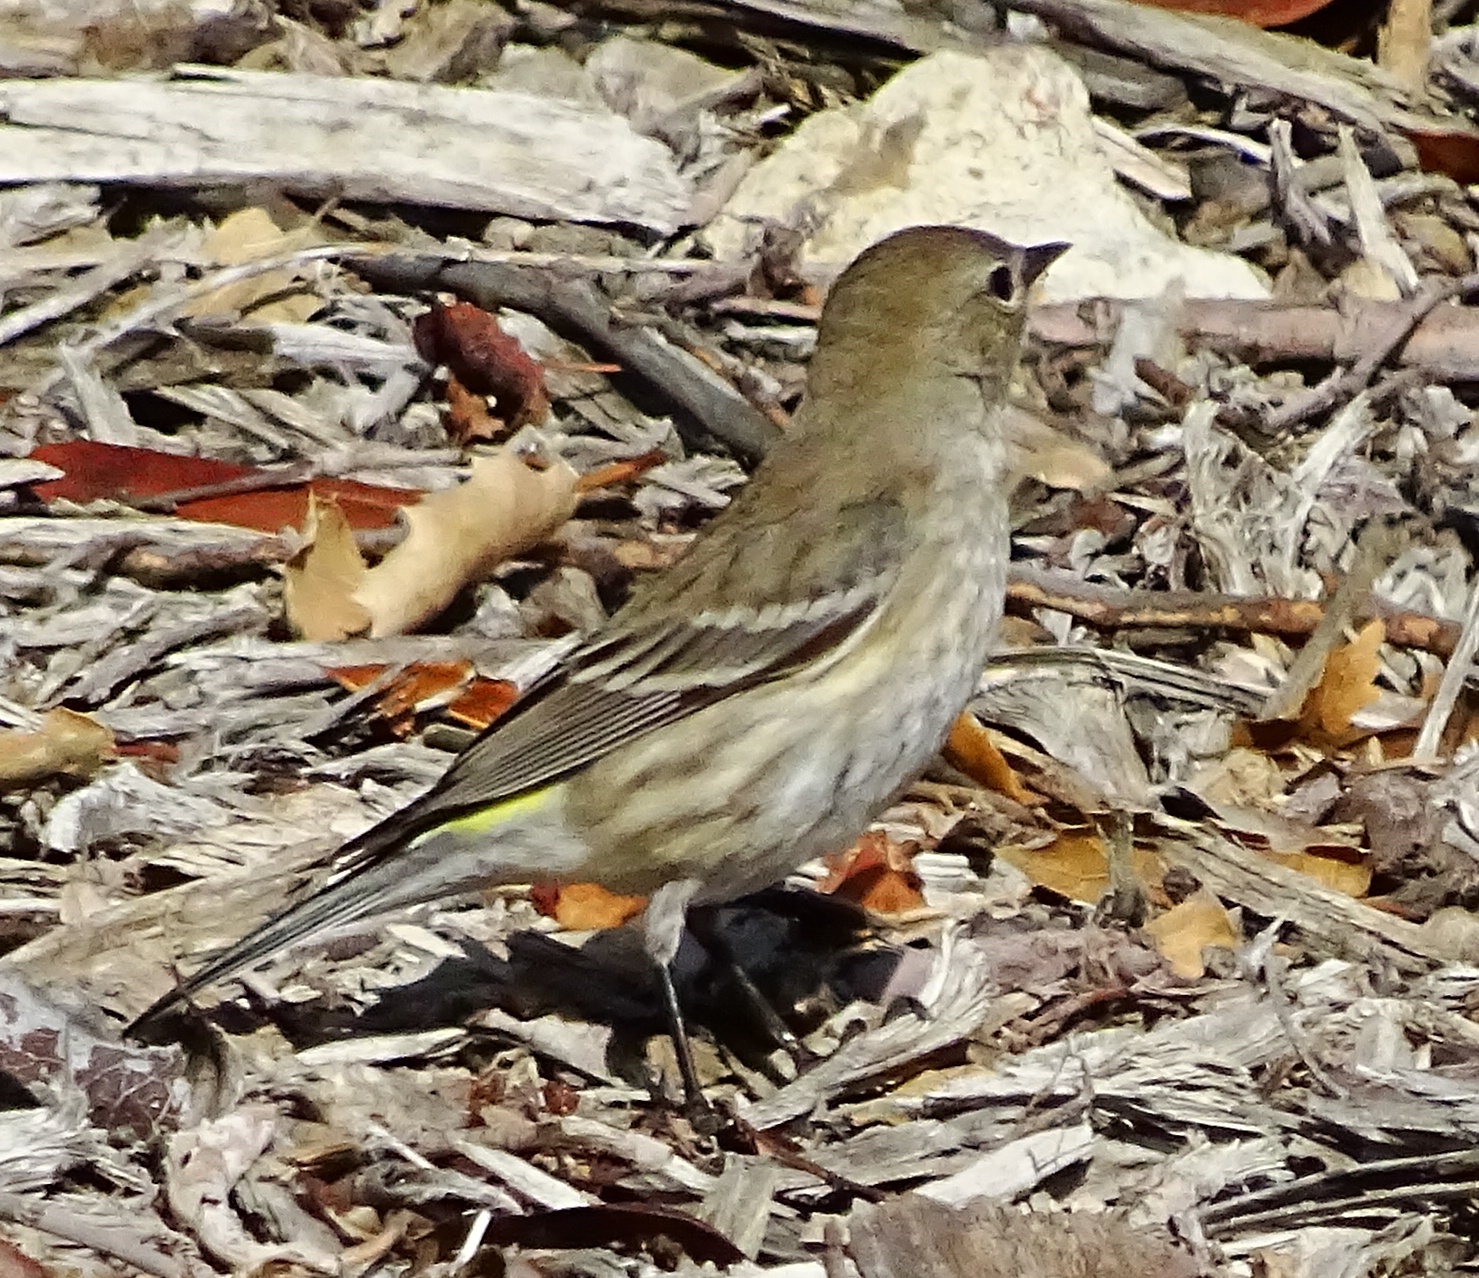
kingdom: Animalia
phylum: Chordata
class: Aves
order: Passeriformes
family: Parulidae
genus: Setophaga
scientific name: Setophaga coronata
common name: Myrtle warbler
